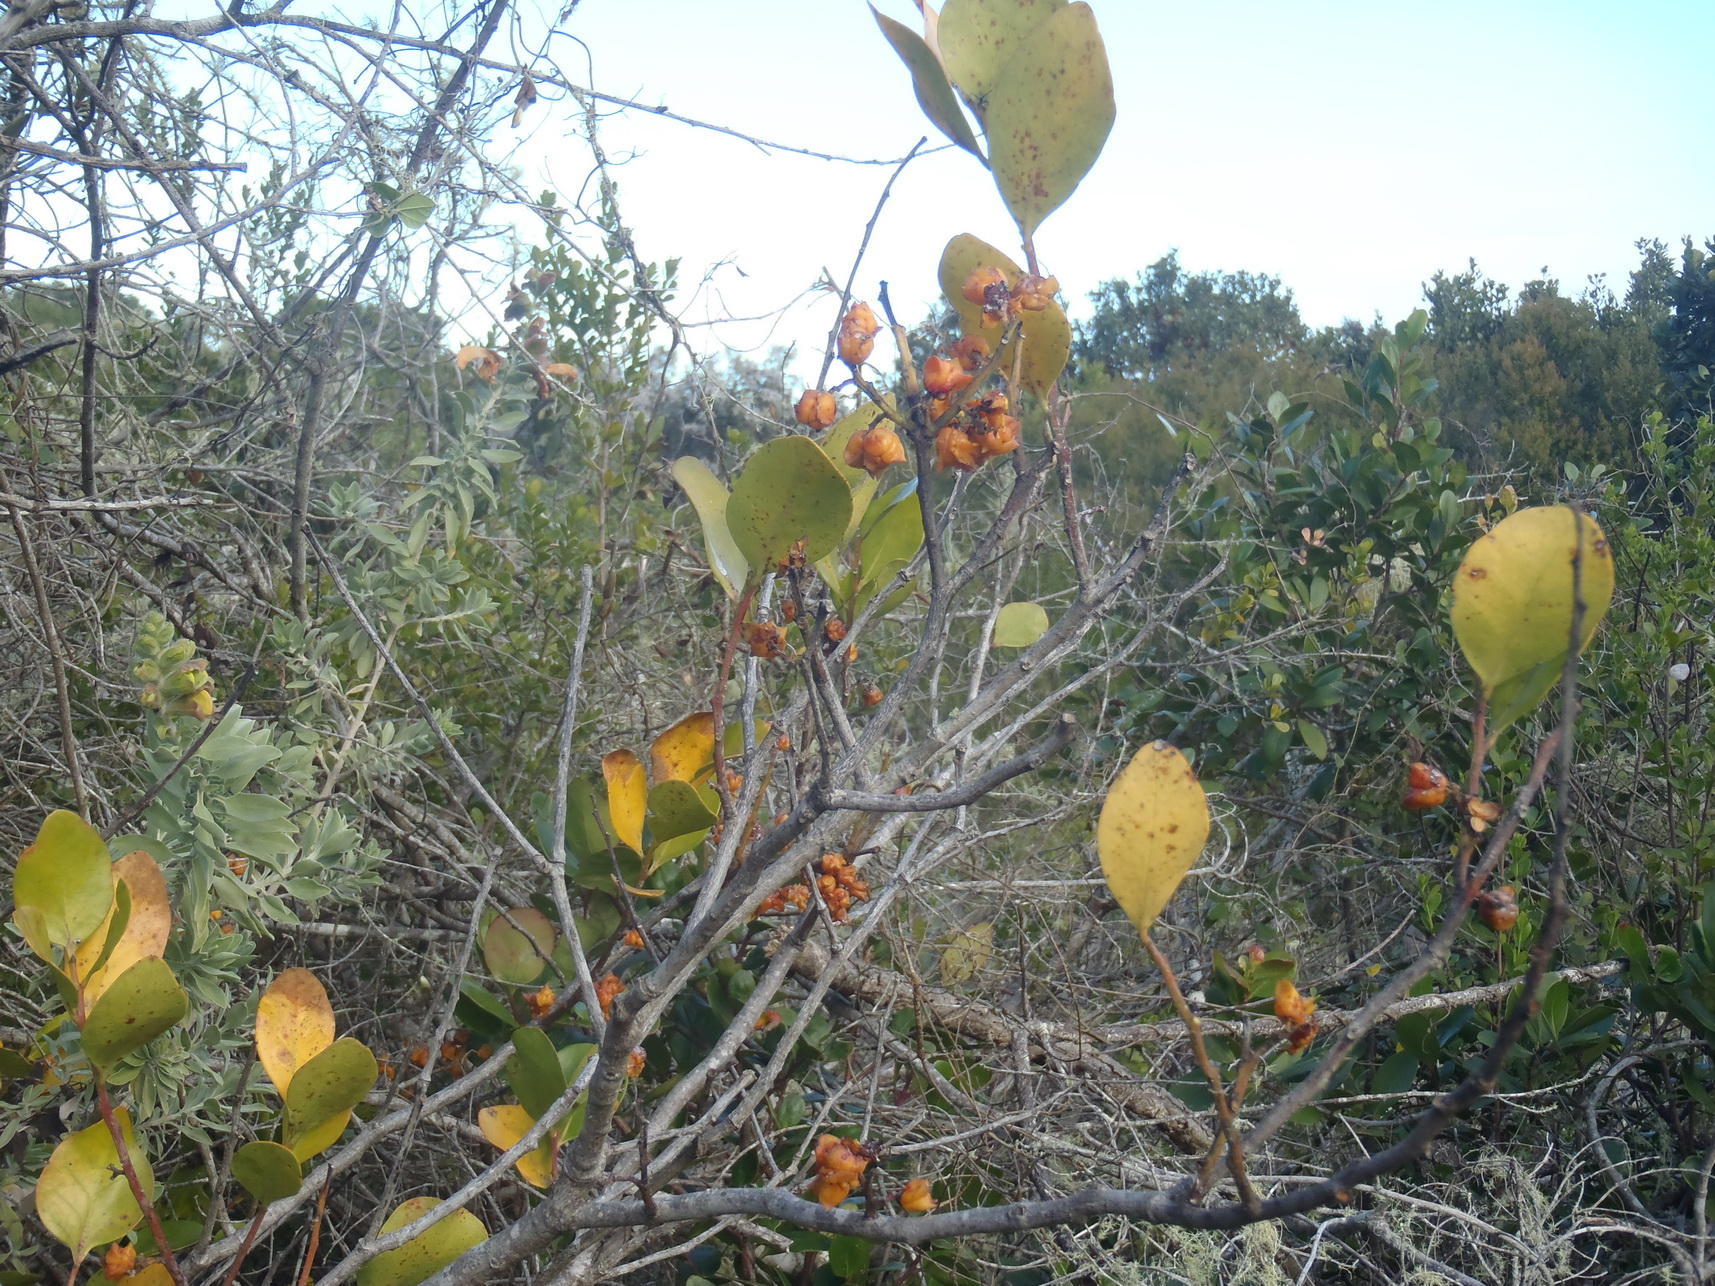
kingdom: Plantae
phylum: Tracheophyta
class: Magnoliopsida
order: Celastrales
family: Celastraceae
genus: Pterocelastrus
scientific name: Pterocelastrus tricuspidatus
